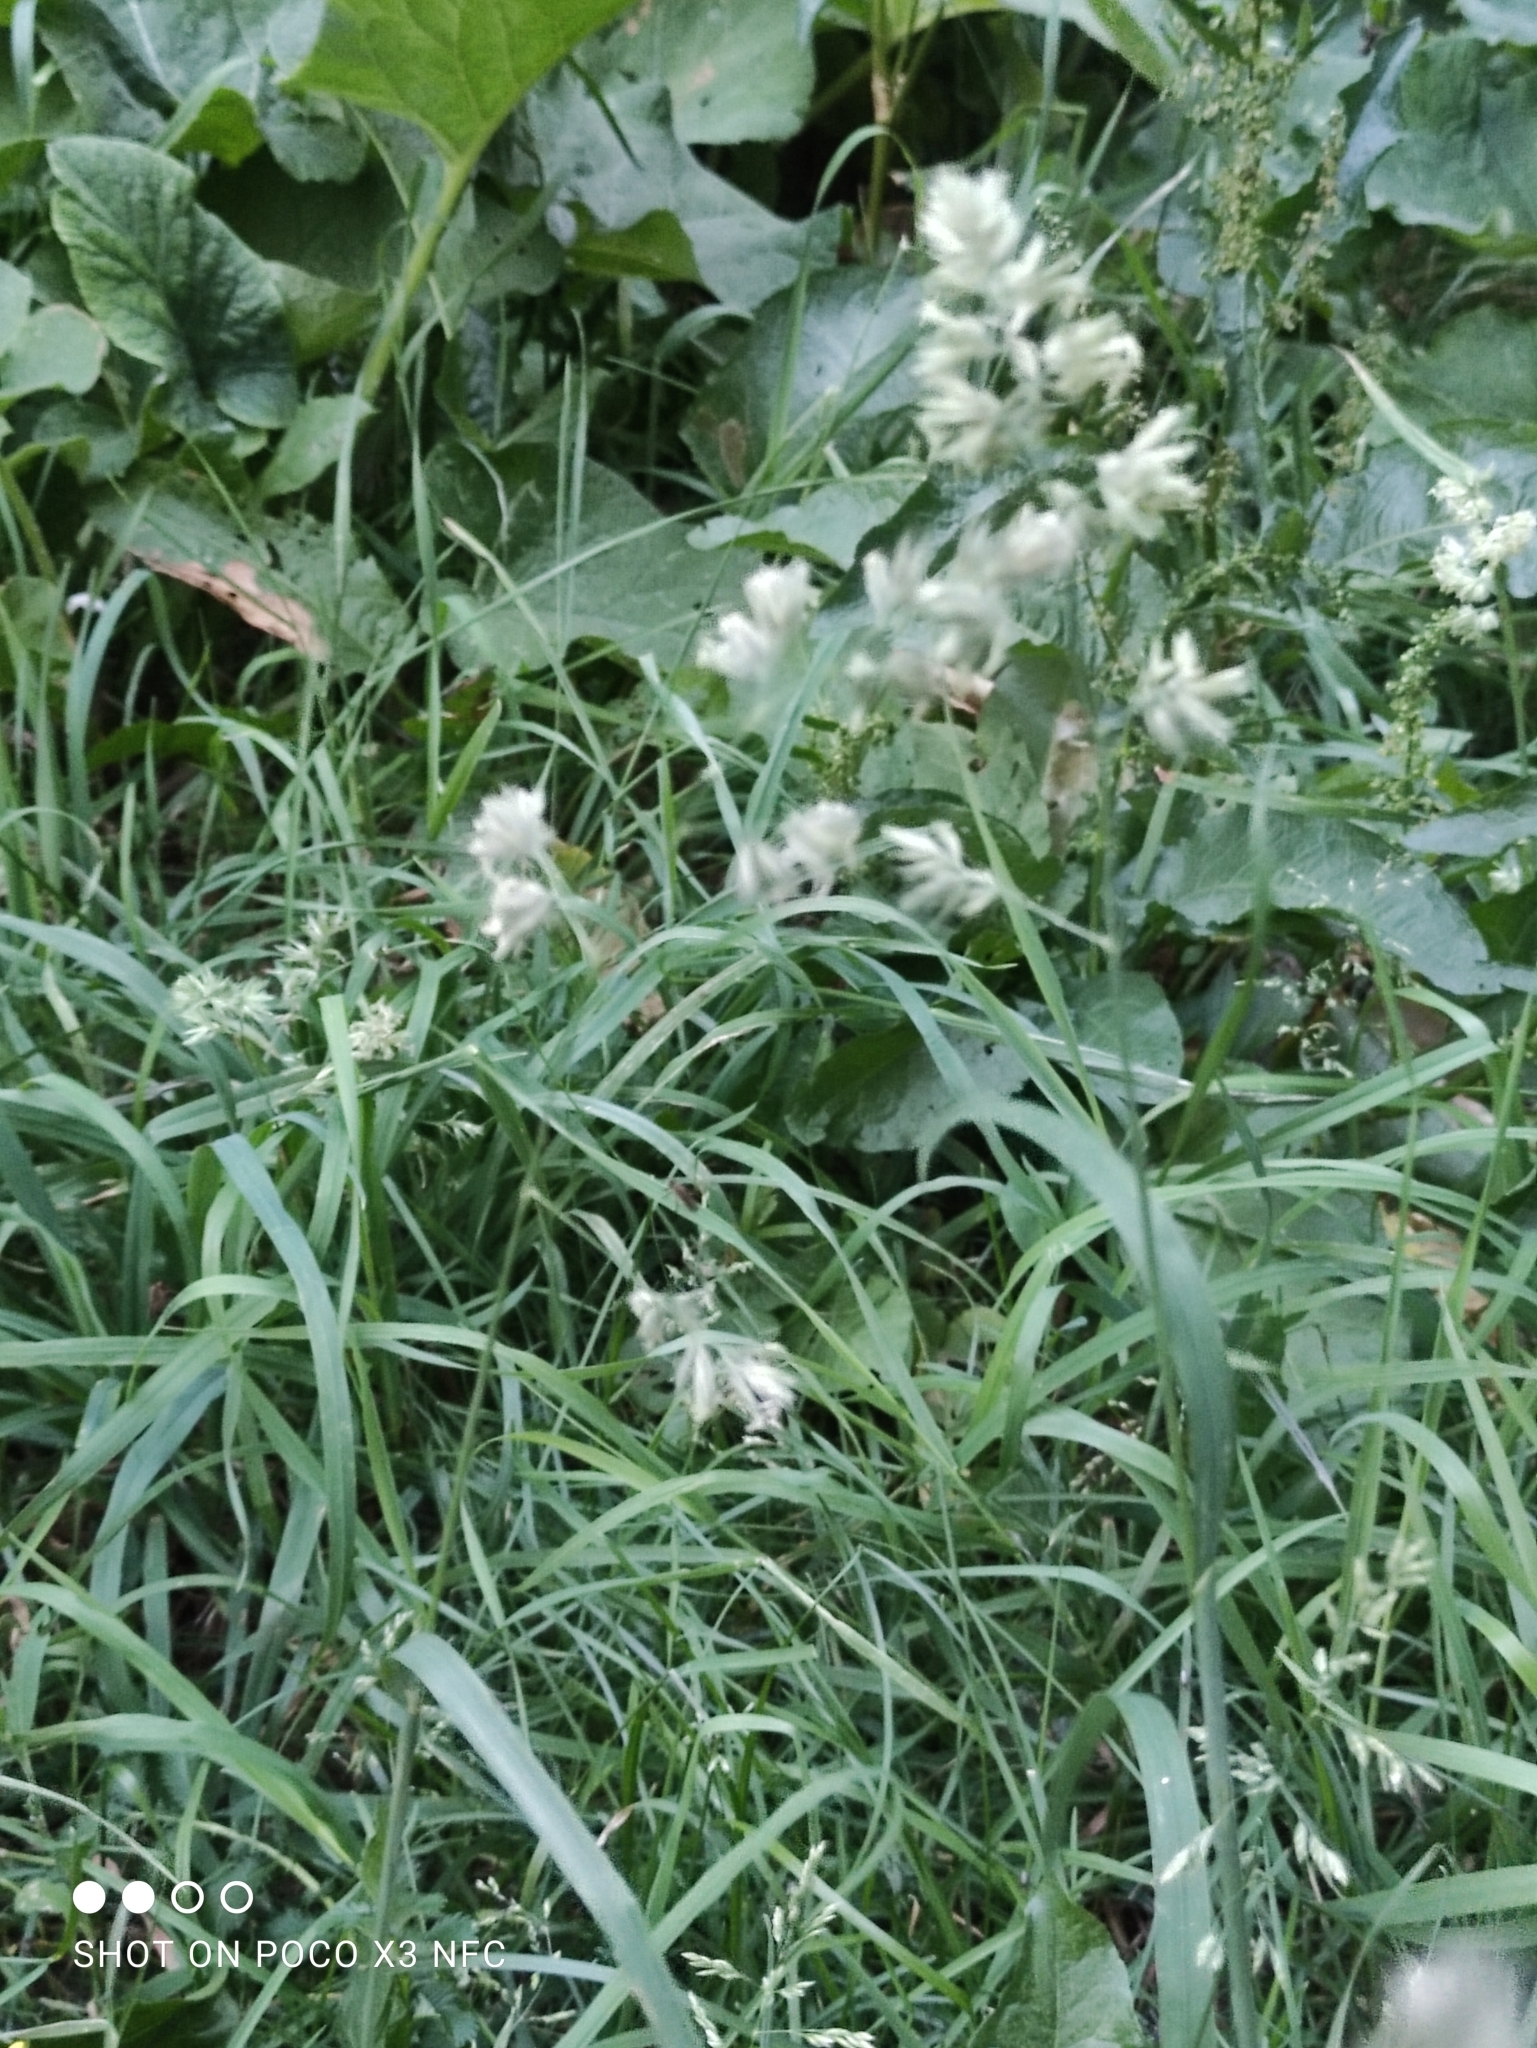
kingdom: Plantae
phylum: Tracheophyta
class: Liliopsida
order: Poales
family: Poaceae
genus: Dactylis
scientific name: Dactylis glomerata
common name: Orchardgrass
